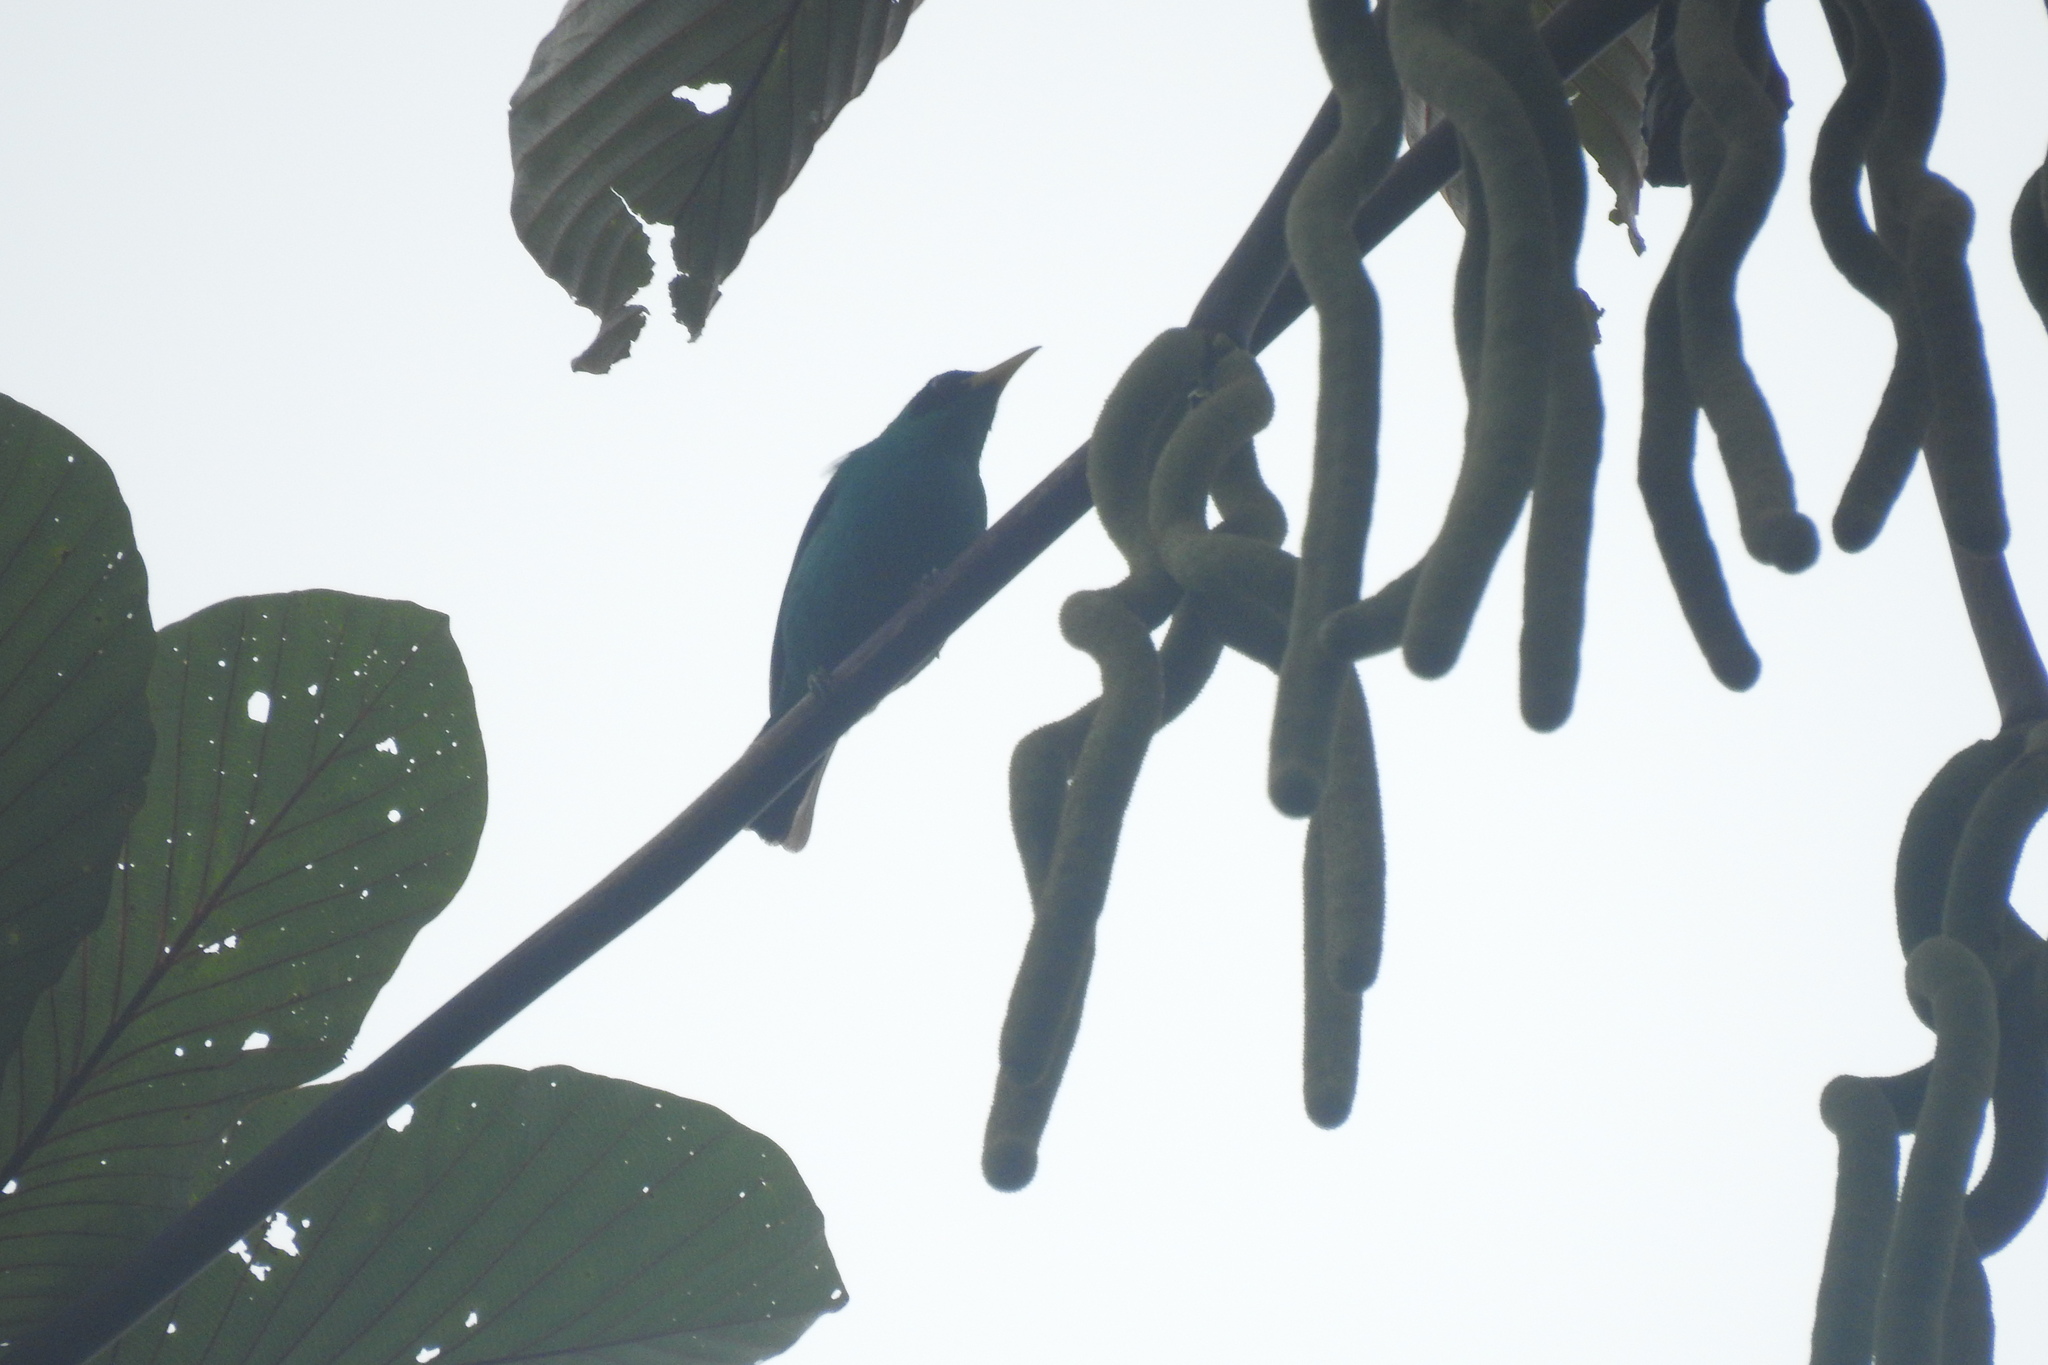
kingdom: Animalia
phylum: Chordata
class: Aves
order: Passeriformes
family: Thraupidae
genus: Chlorophanes
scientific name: Chlorophanes spiza
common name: Green honeycreeper
